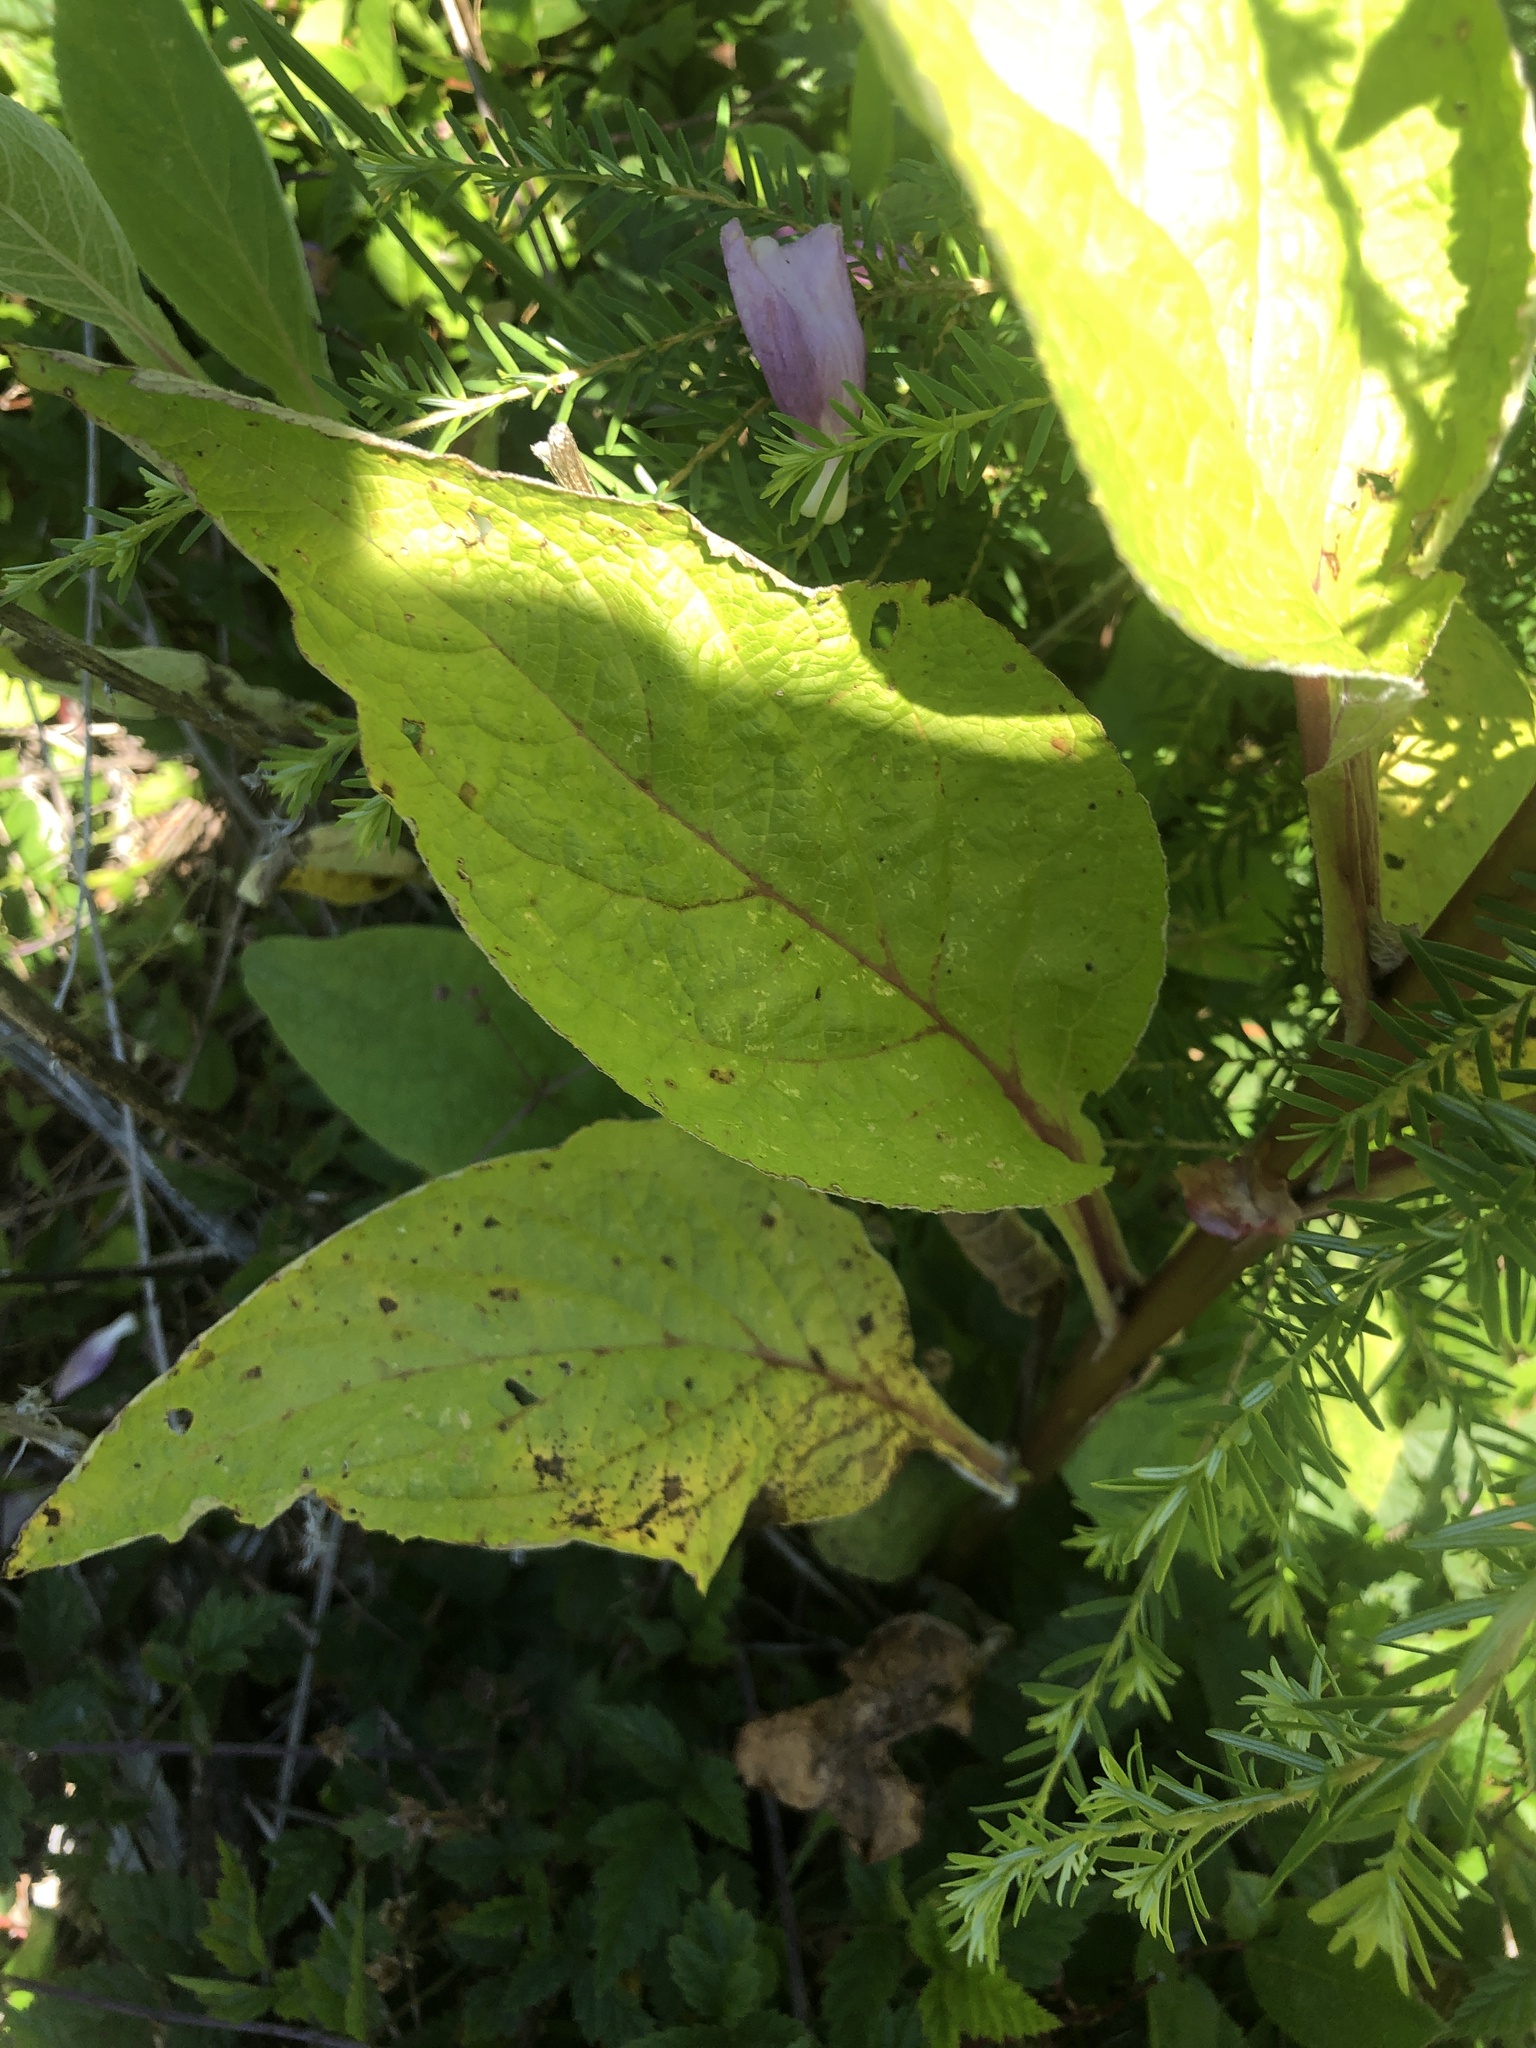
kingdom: Plantae
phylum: Tracheophyta
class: Magnoliopsida
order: Lamiales
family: Plantaginaceae
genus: Digitalis
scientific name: Digitalis purpurea
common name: Foxglove
